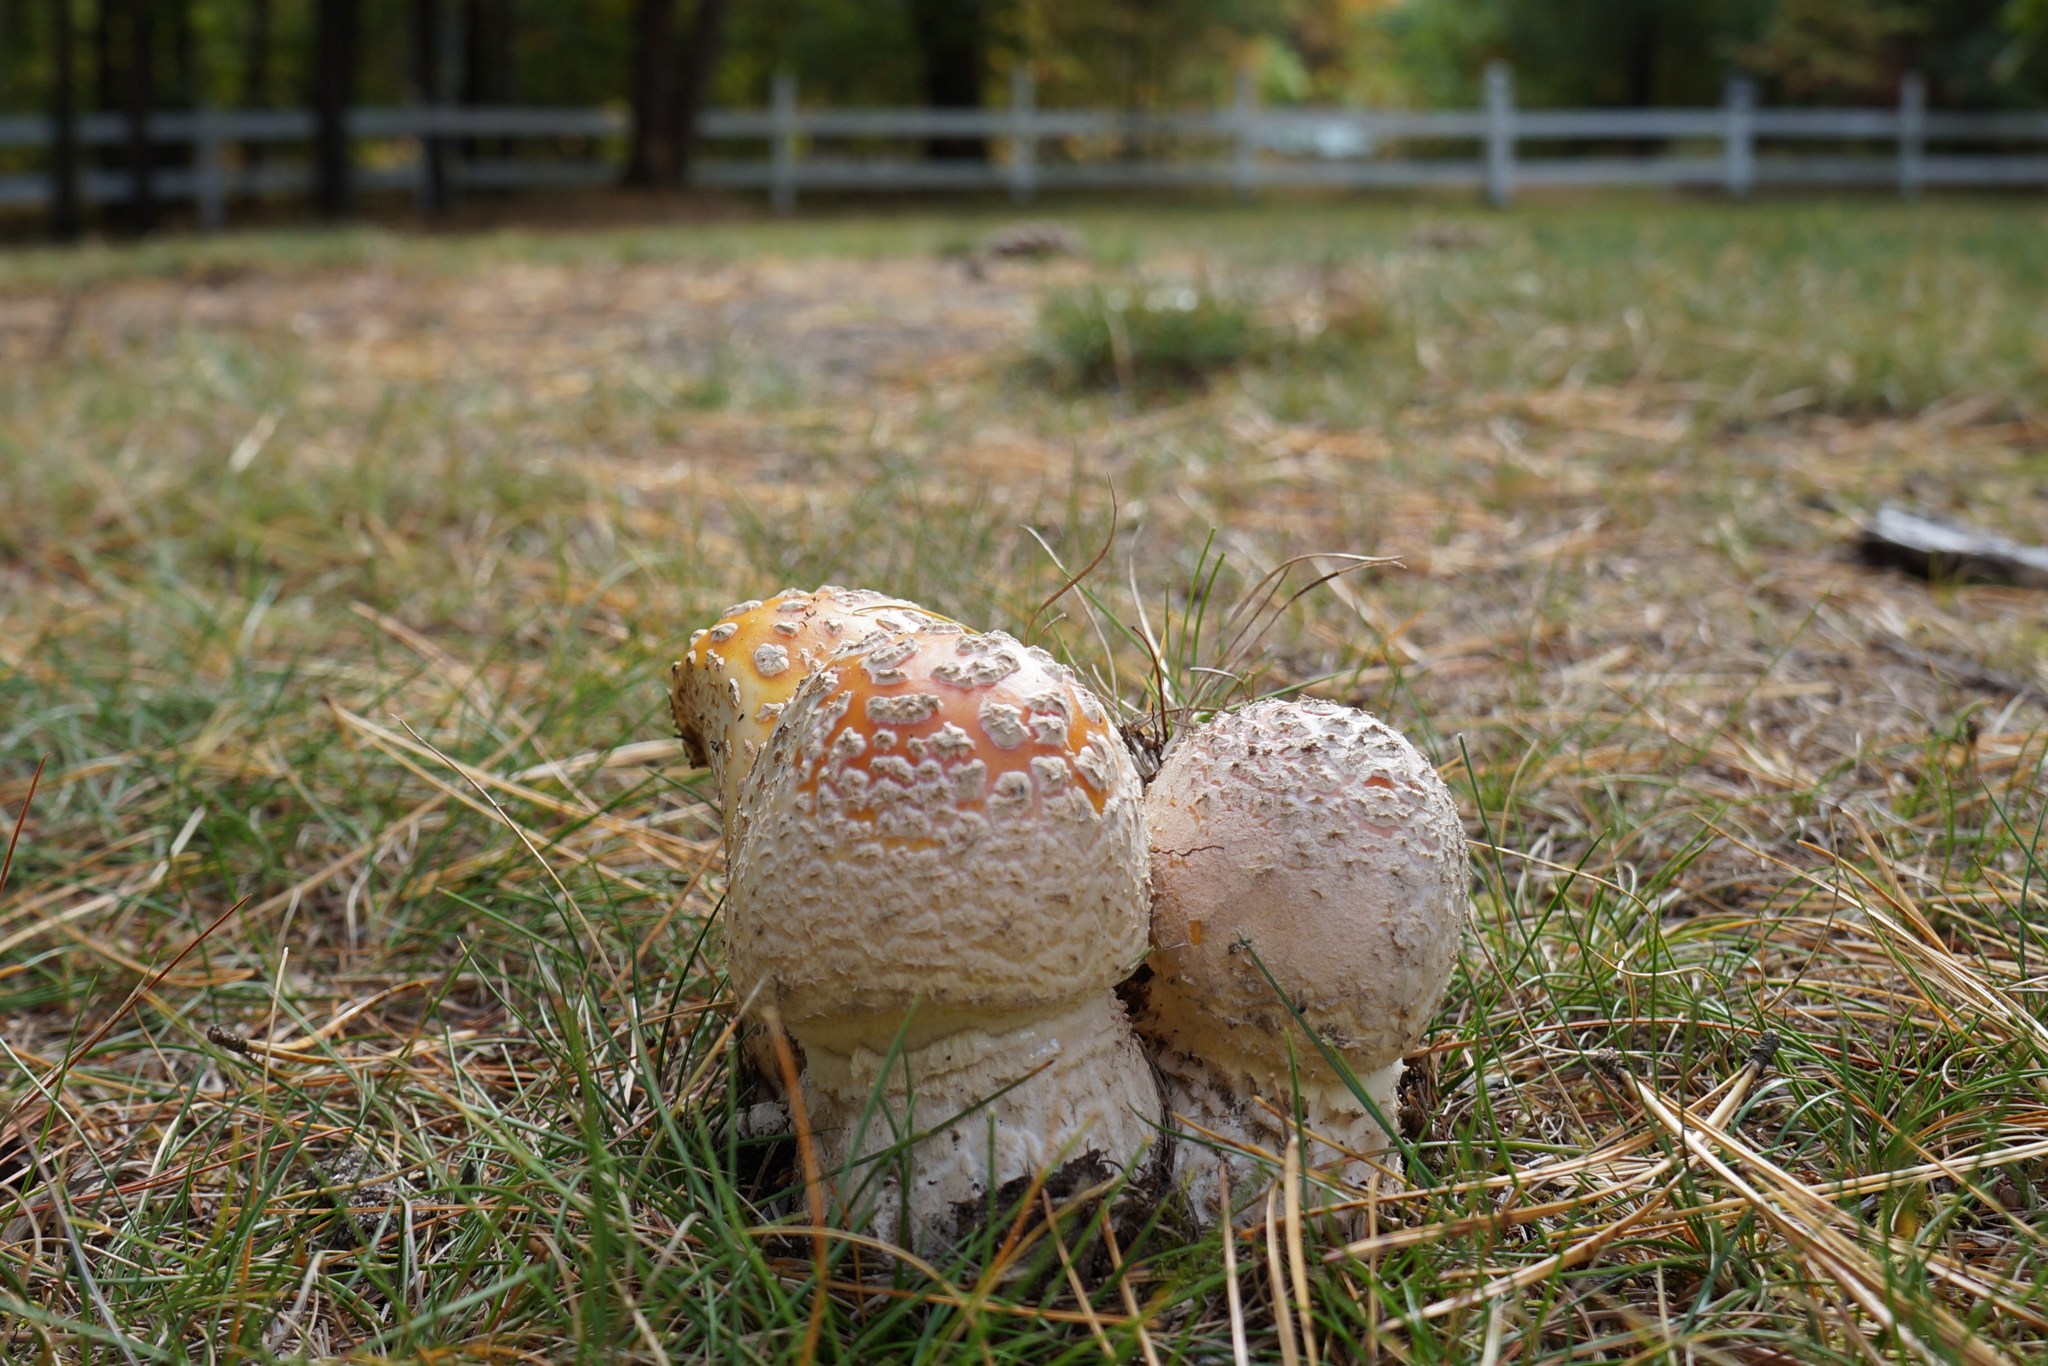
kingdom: Fungi
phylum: Basidiomycota
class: Agaricomycetes
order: Agaricales
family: Amanitaceae
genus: Amanita
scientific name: Amanita muscaria
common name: Fly agaric
